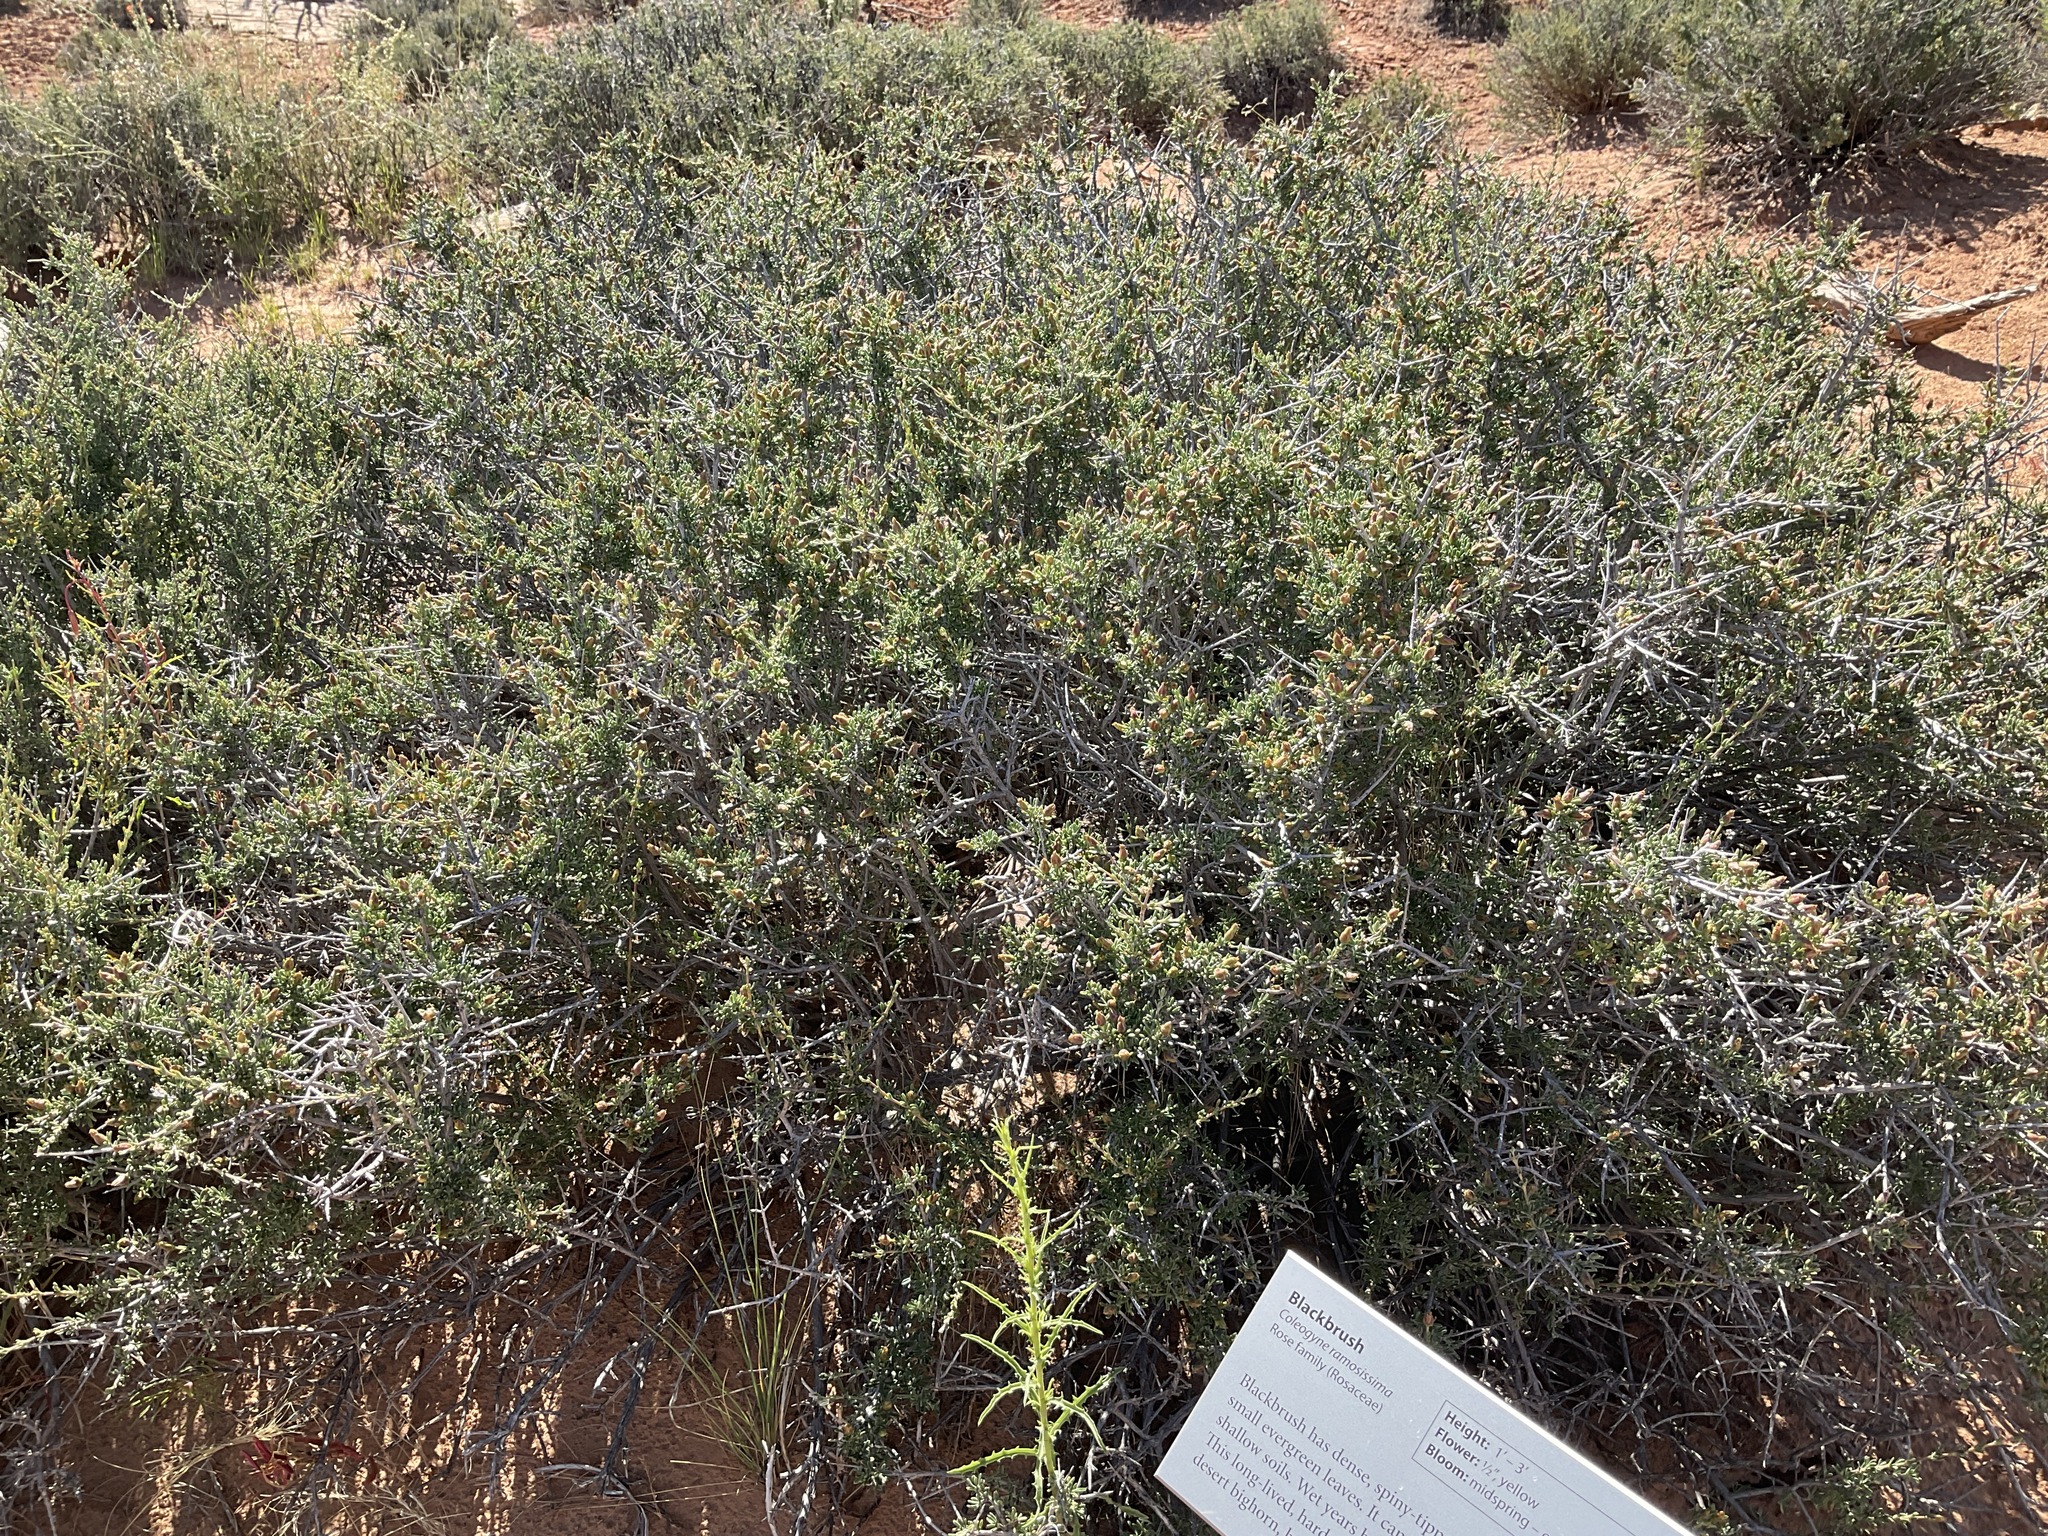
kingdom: Plantae
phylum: Tracheophyta
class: Magnoliopsida
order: Rosales
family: Rosaceae
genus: Coleogyne
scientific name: Coleogyne ramosissima
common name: Blackbrush
